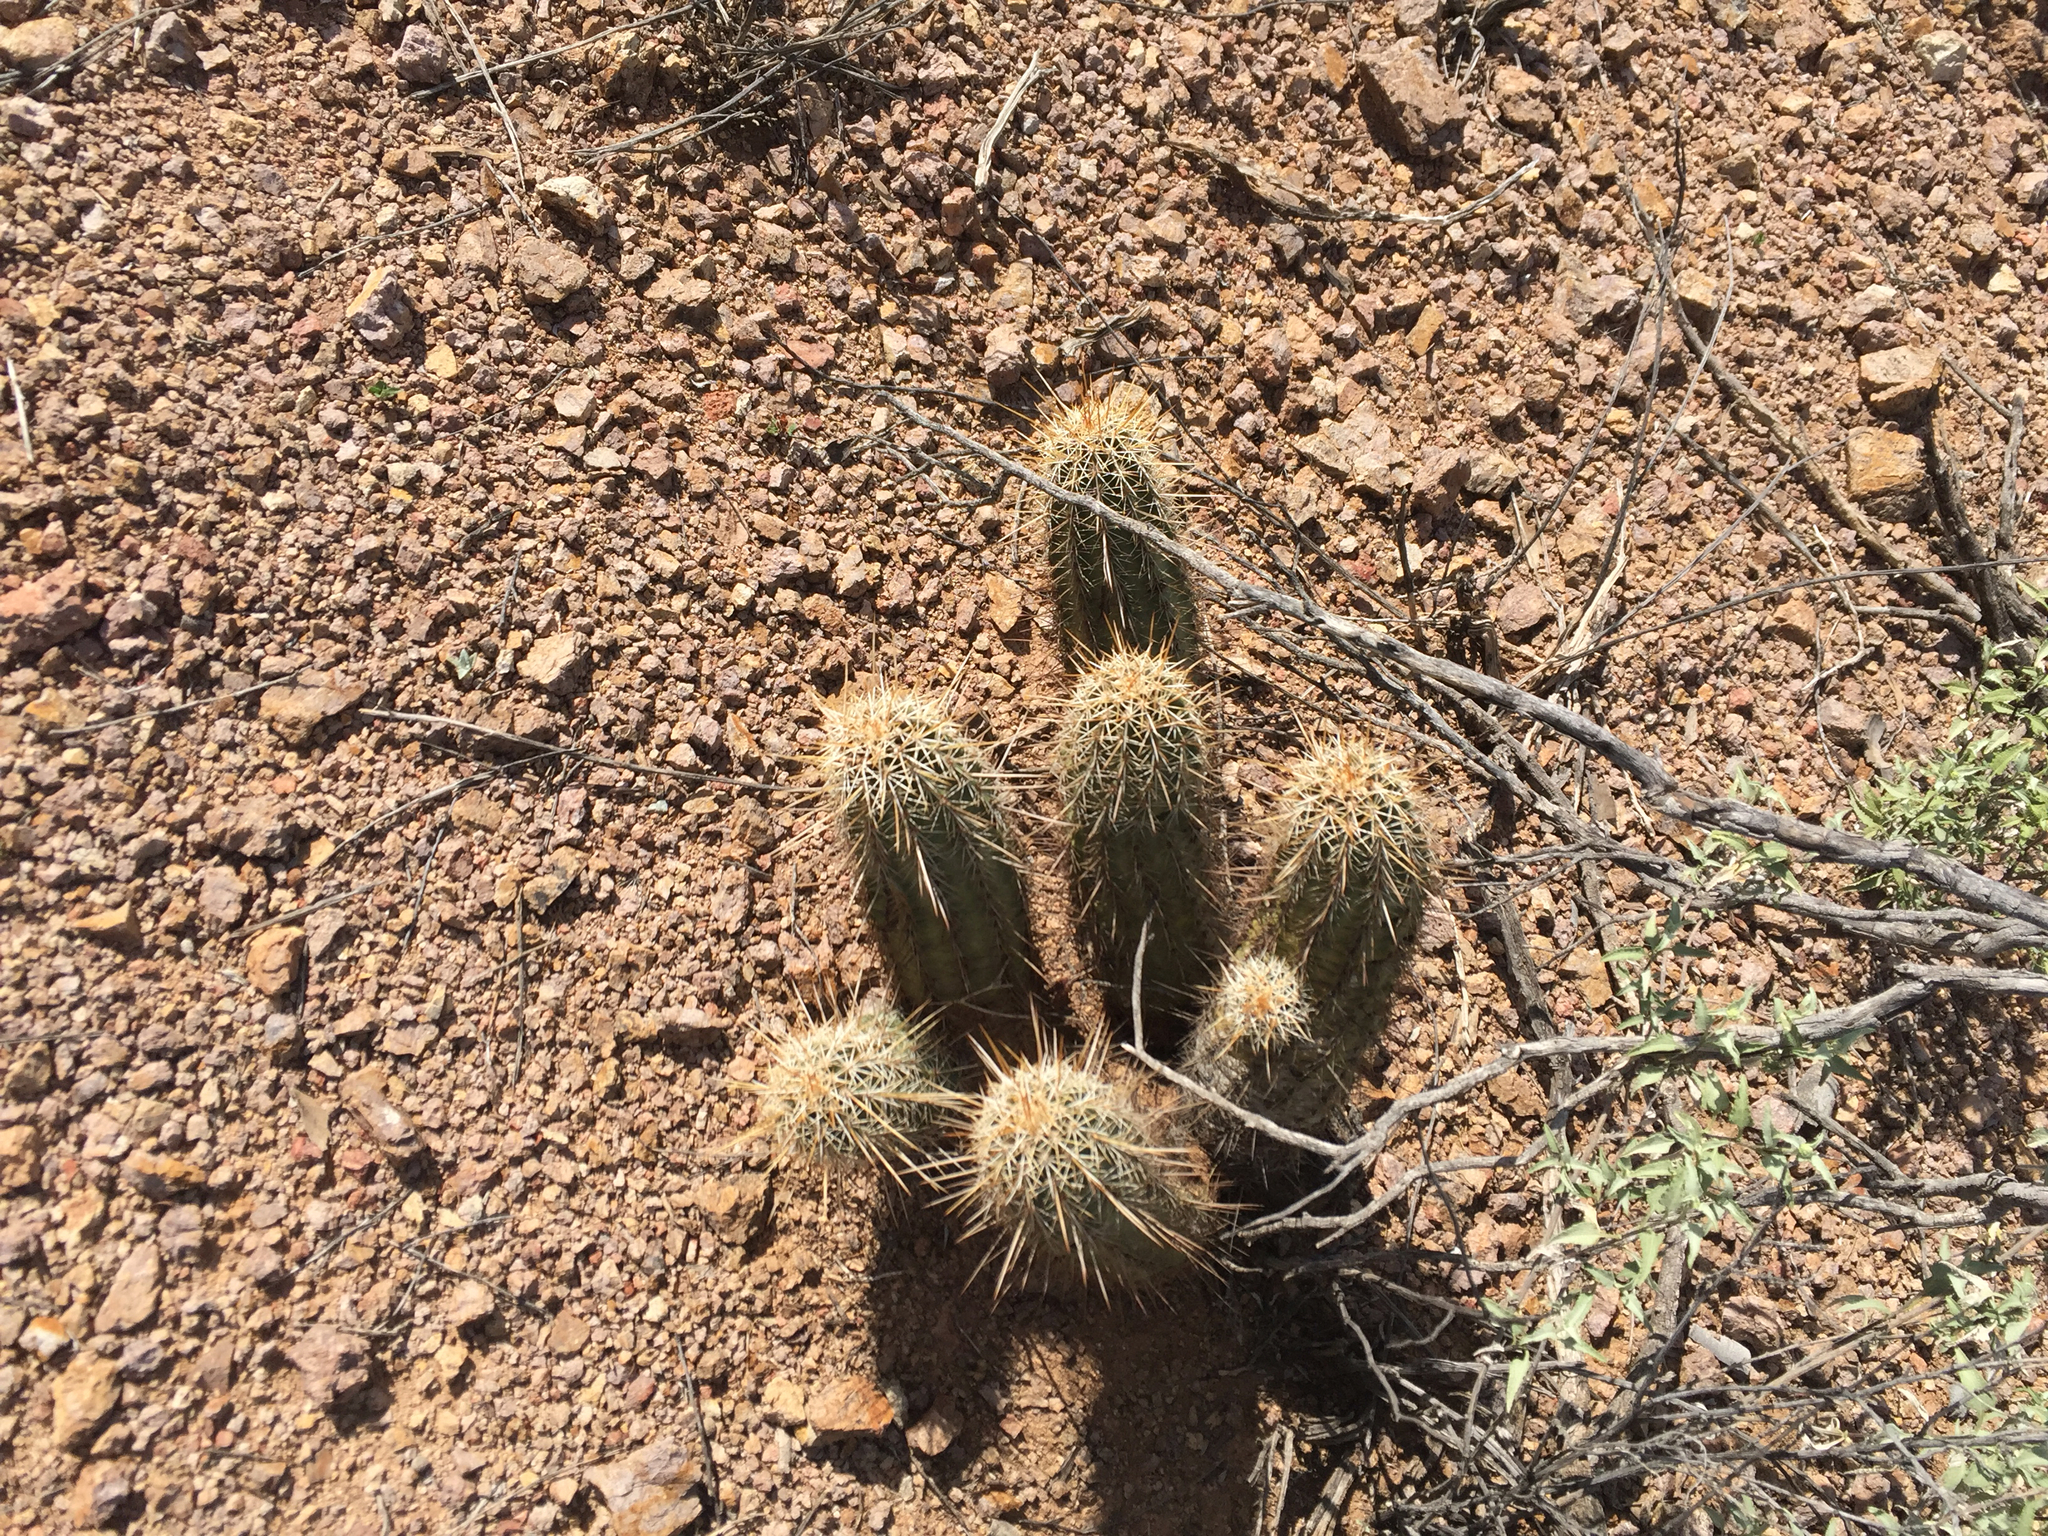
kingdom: Plantae
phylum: Tracheophyta
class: Magnoliopsida
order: Caryophyllales
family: Cactaceae
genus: Echinocereus
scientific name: Echinocereus fasciculatus
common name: Bundle hedgehog
